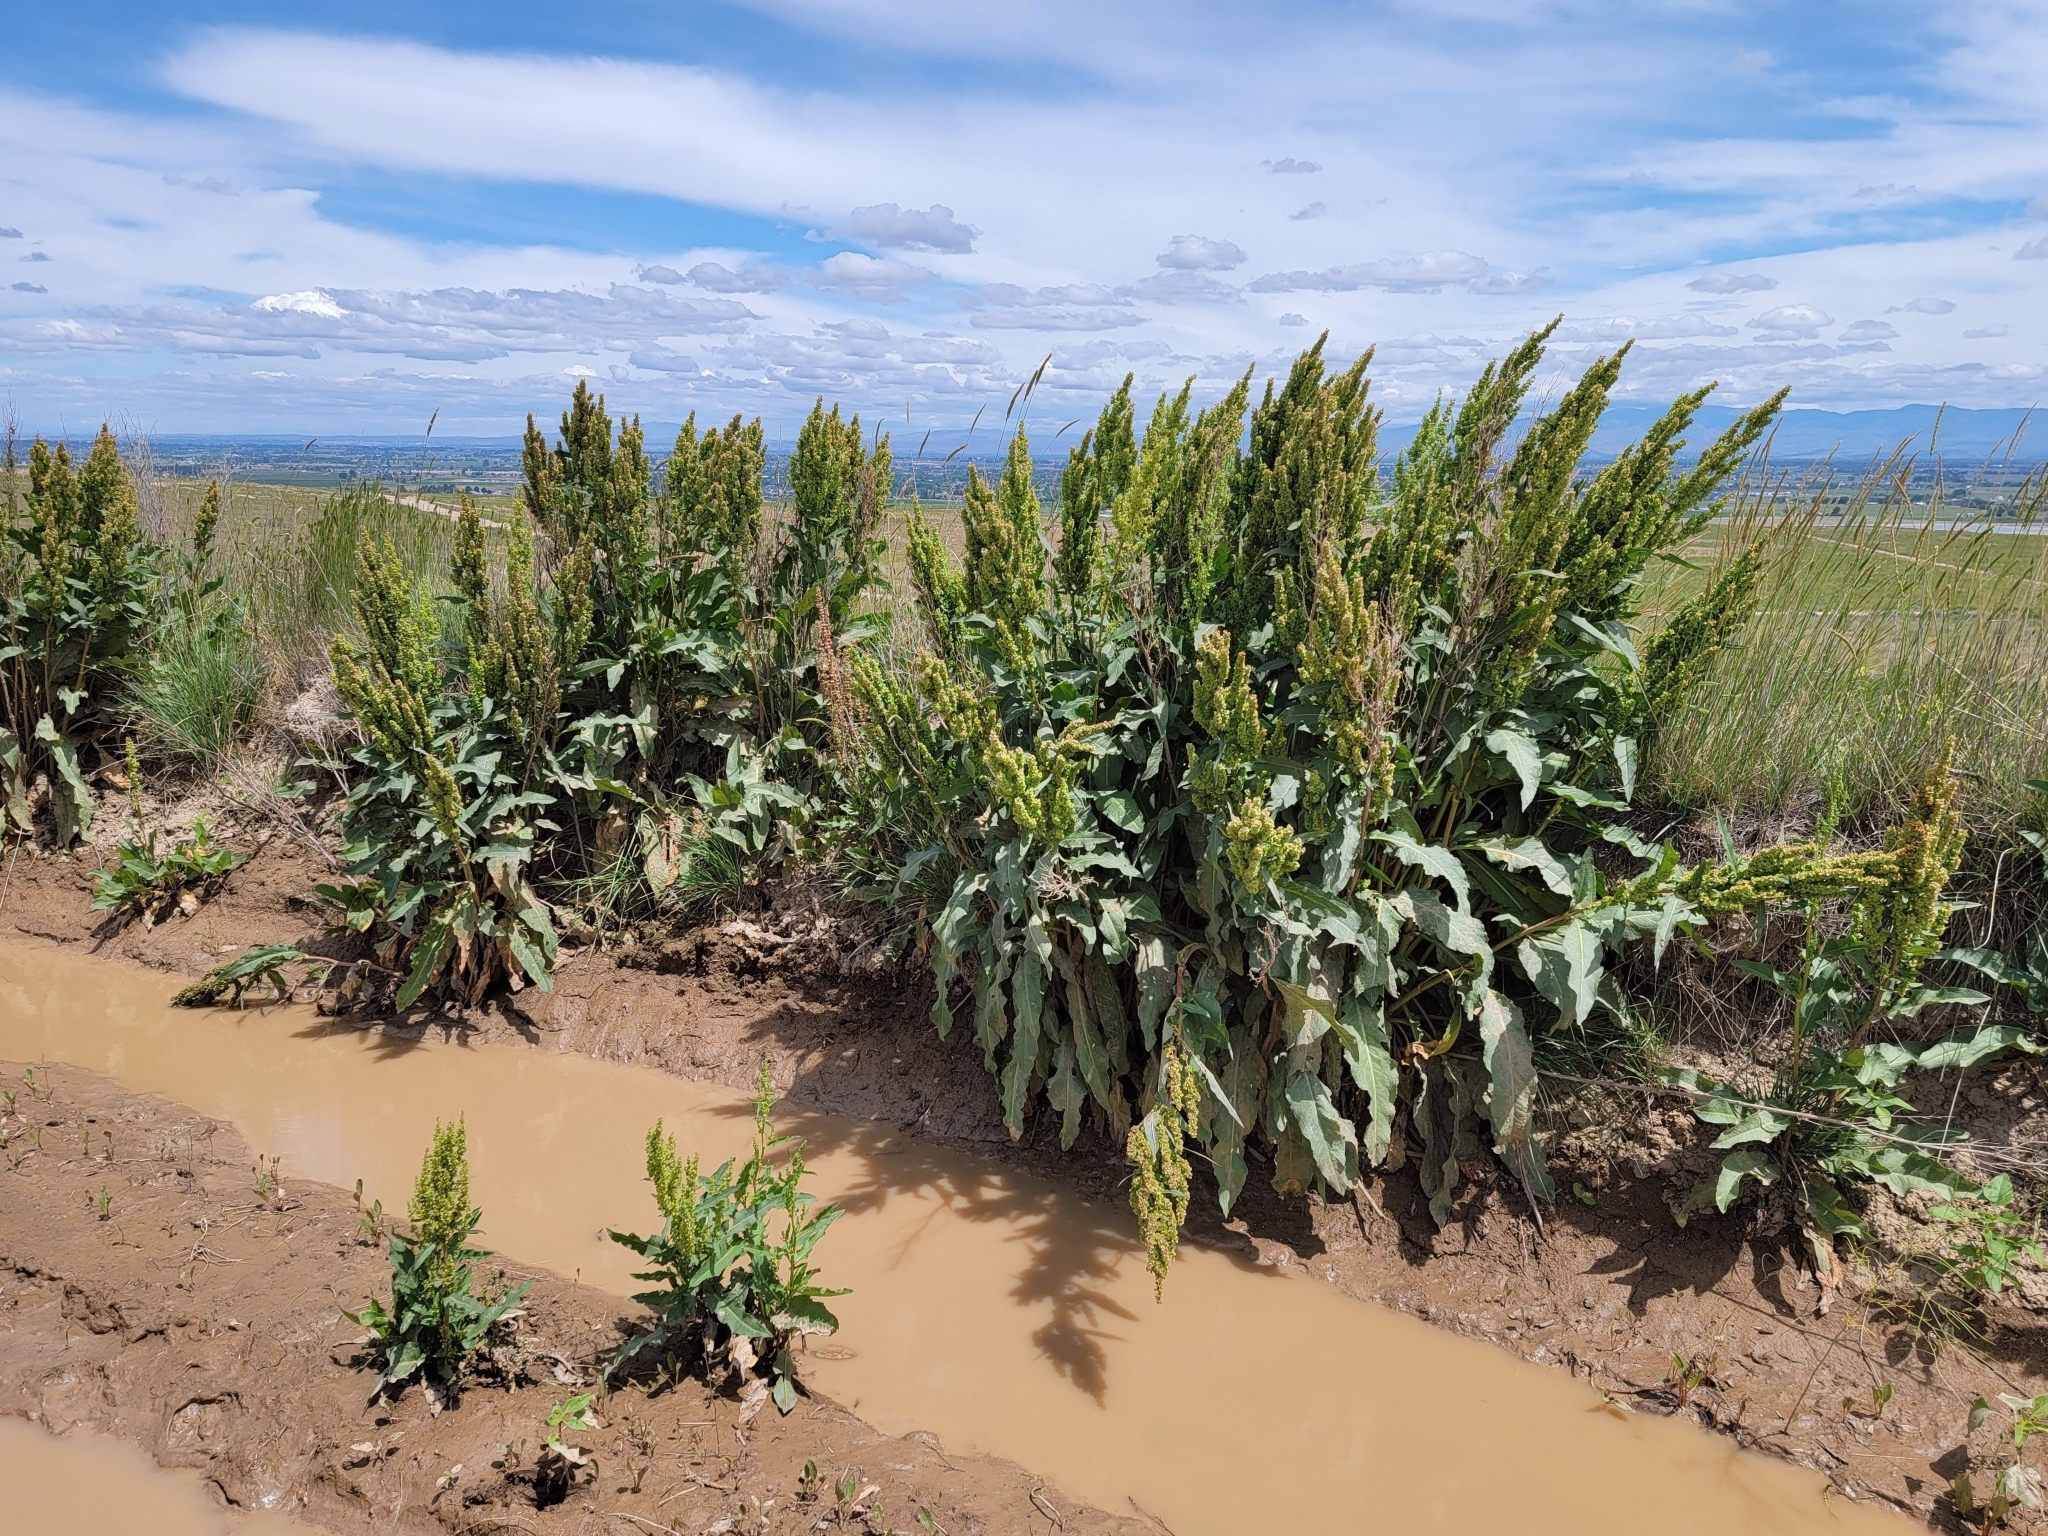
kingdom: Plantae
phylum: Tracheophyta
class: Magnoliopsida
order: Caryophyllales
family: Polygonaceae
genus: Rumex
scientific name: Rumex crispus
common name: Curled dock
